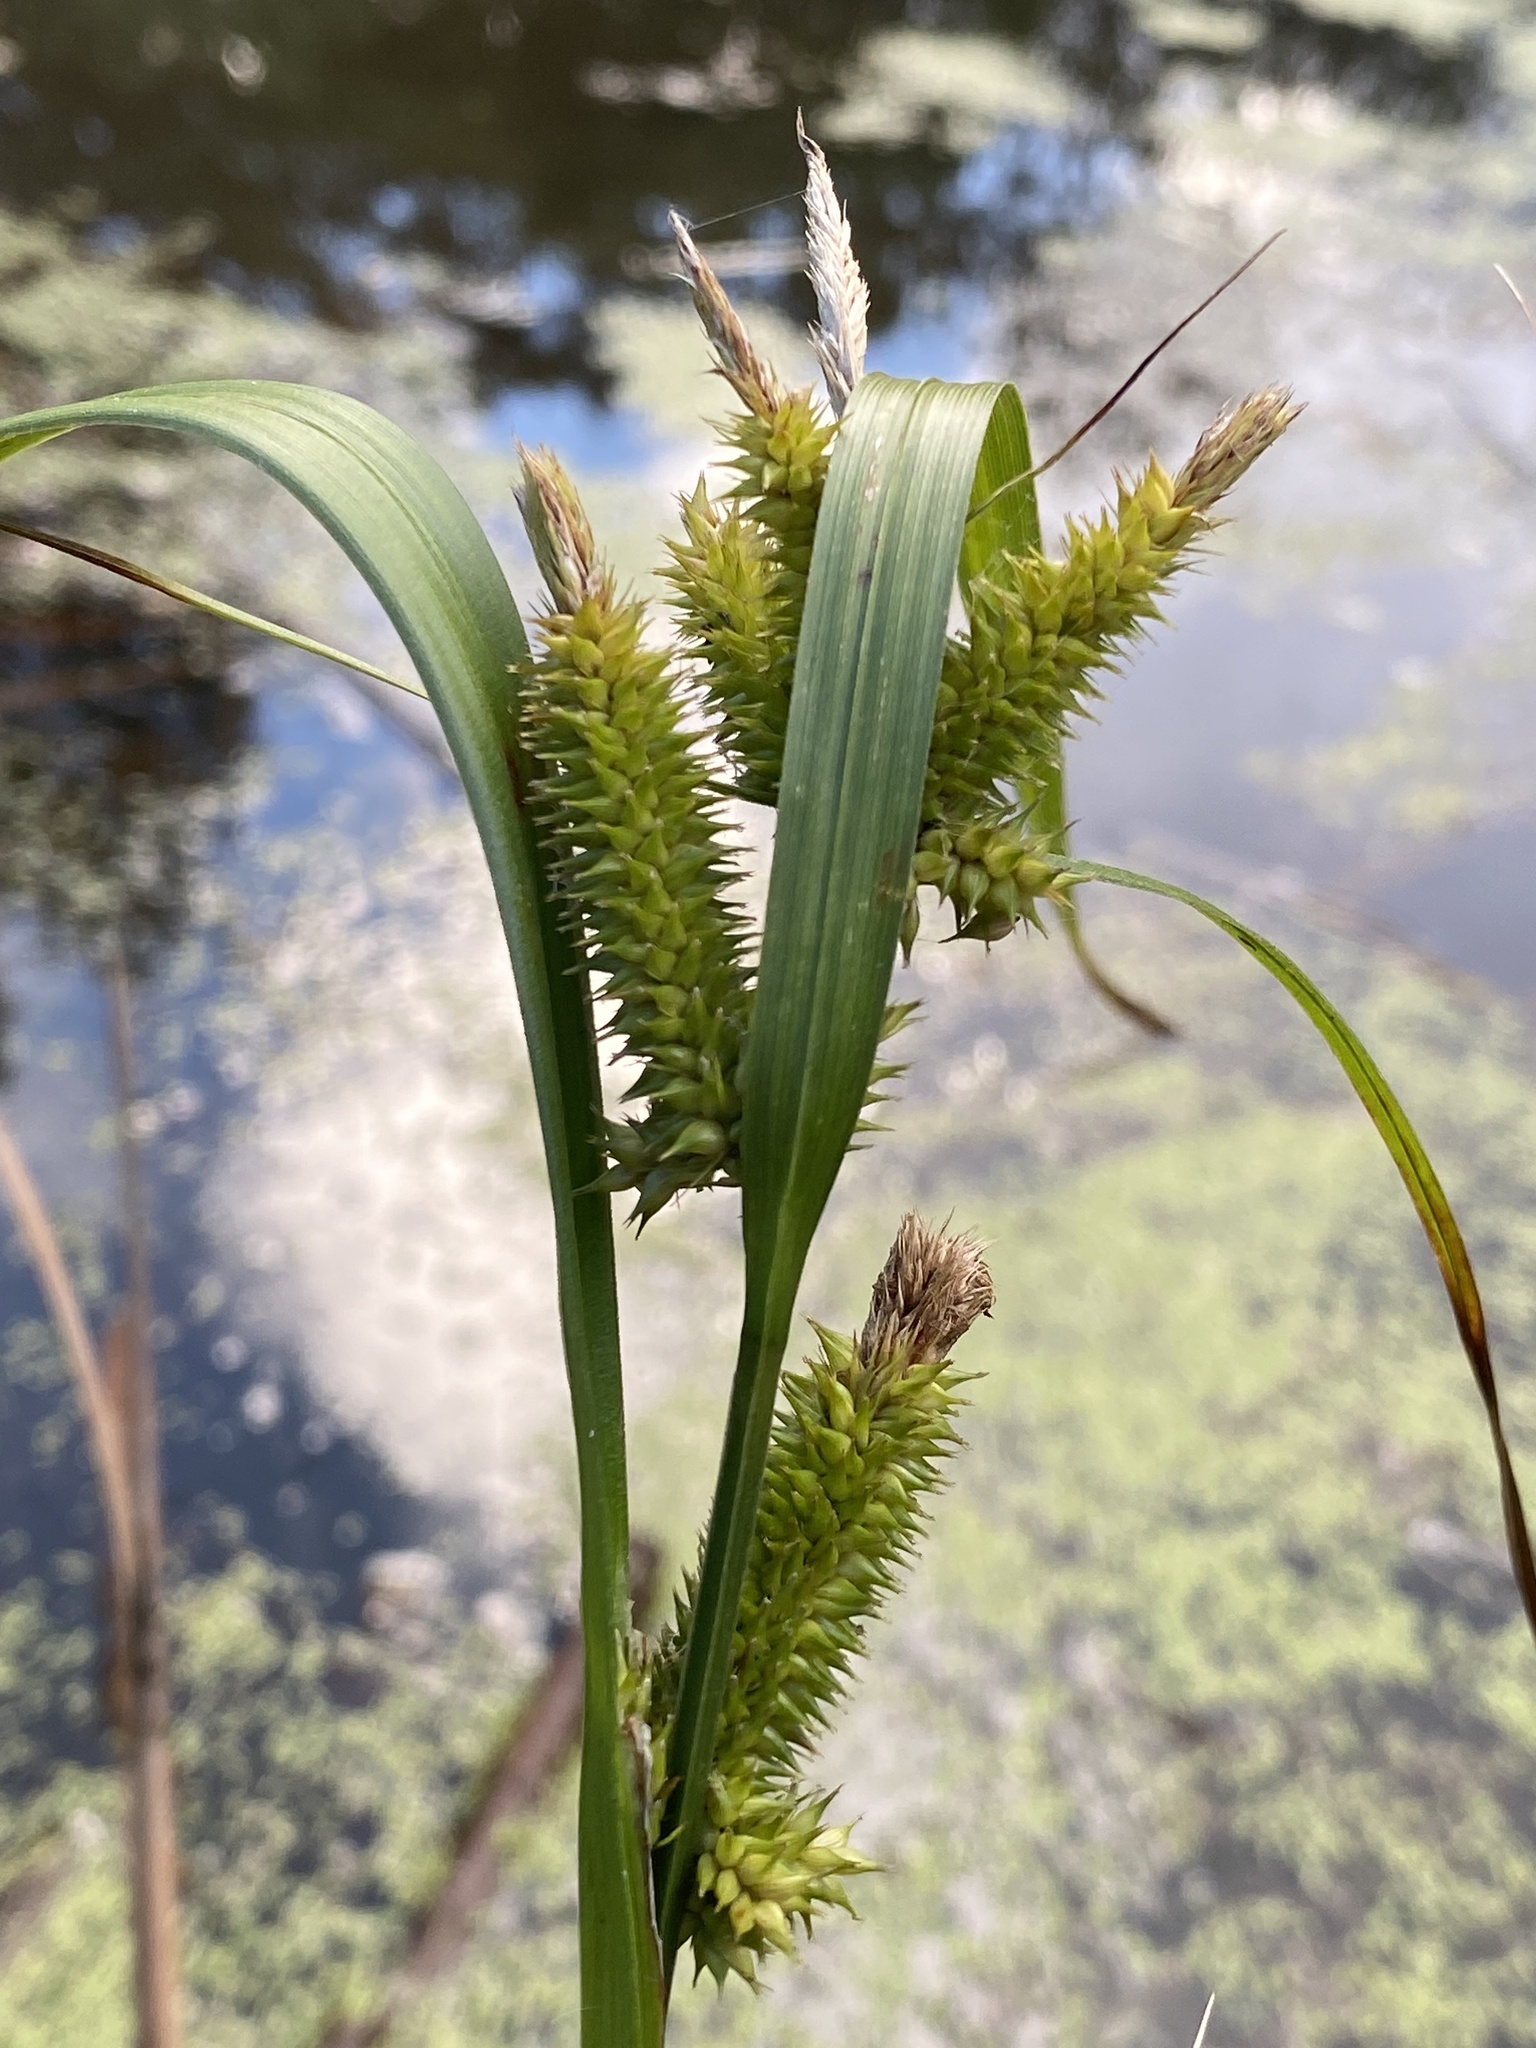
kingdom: Plantae
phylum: Tracheophyta
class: Liliopsida
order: Poales
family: Cyperaceae
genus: Carex
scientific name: Carex pseudocyperus
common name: Cyperus sedge
